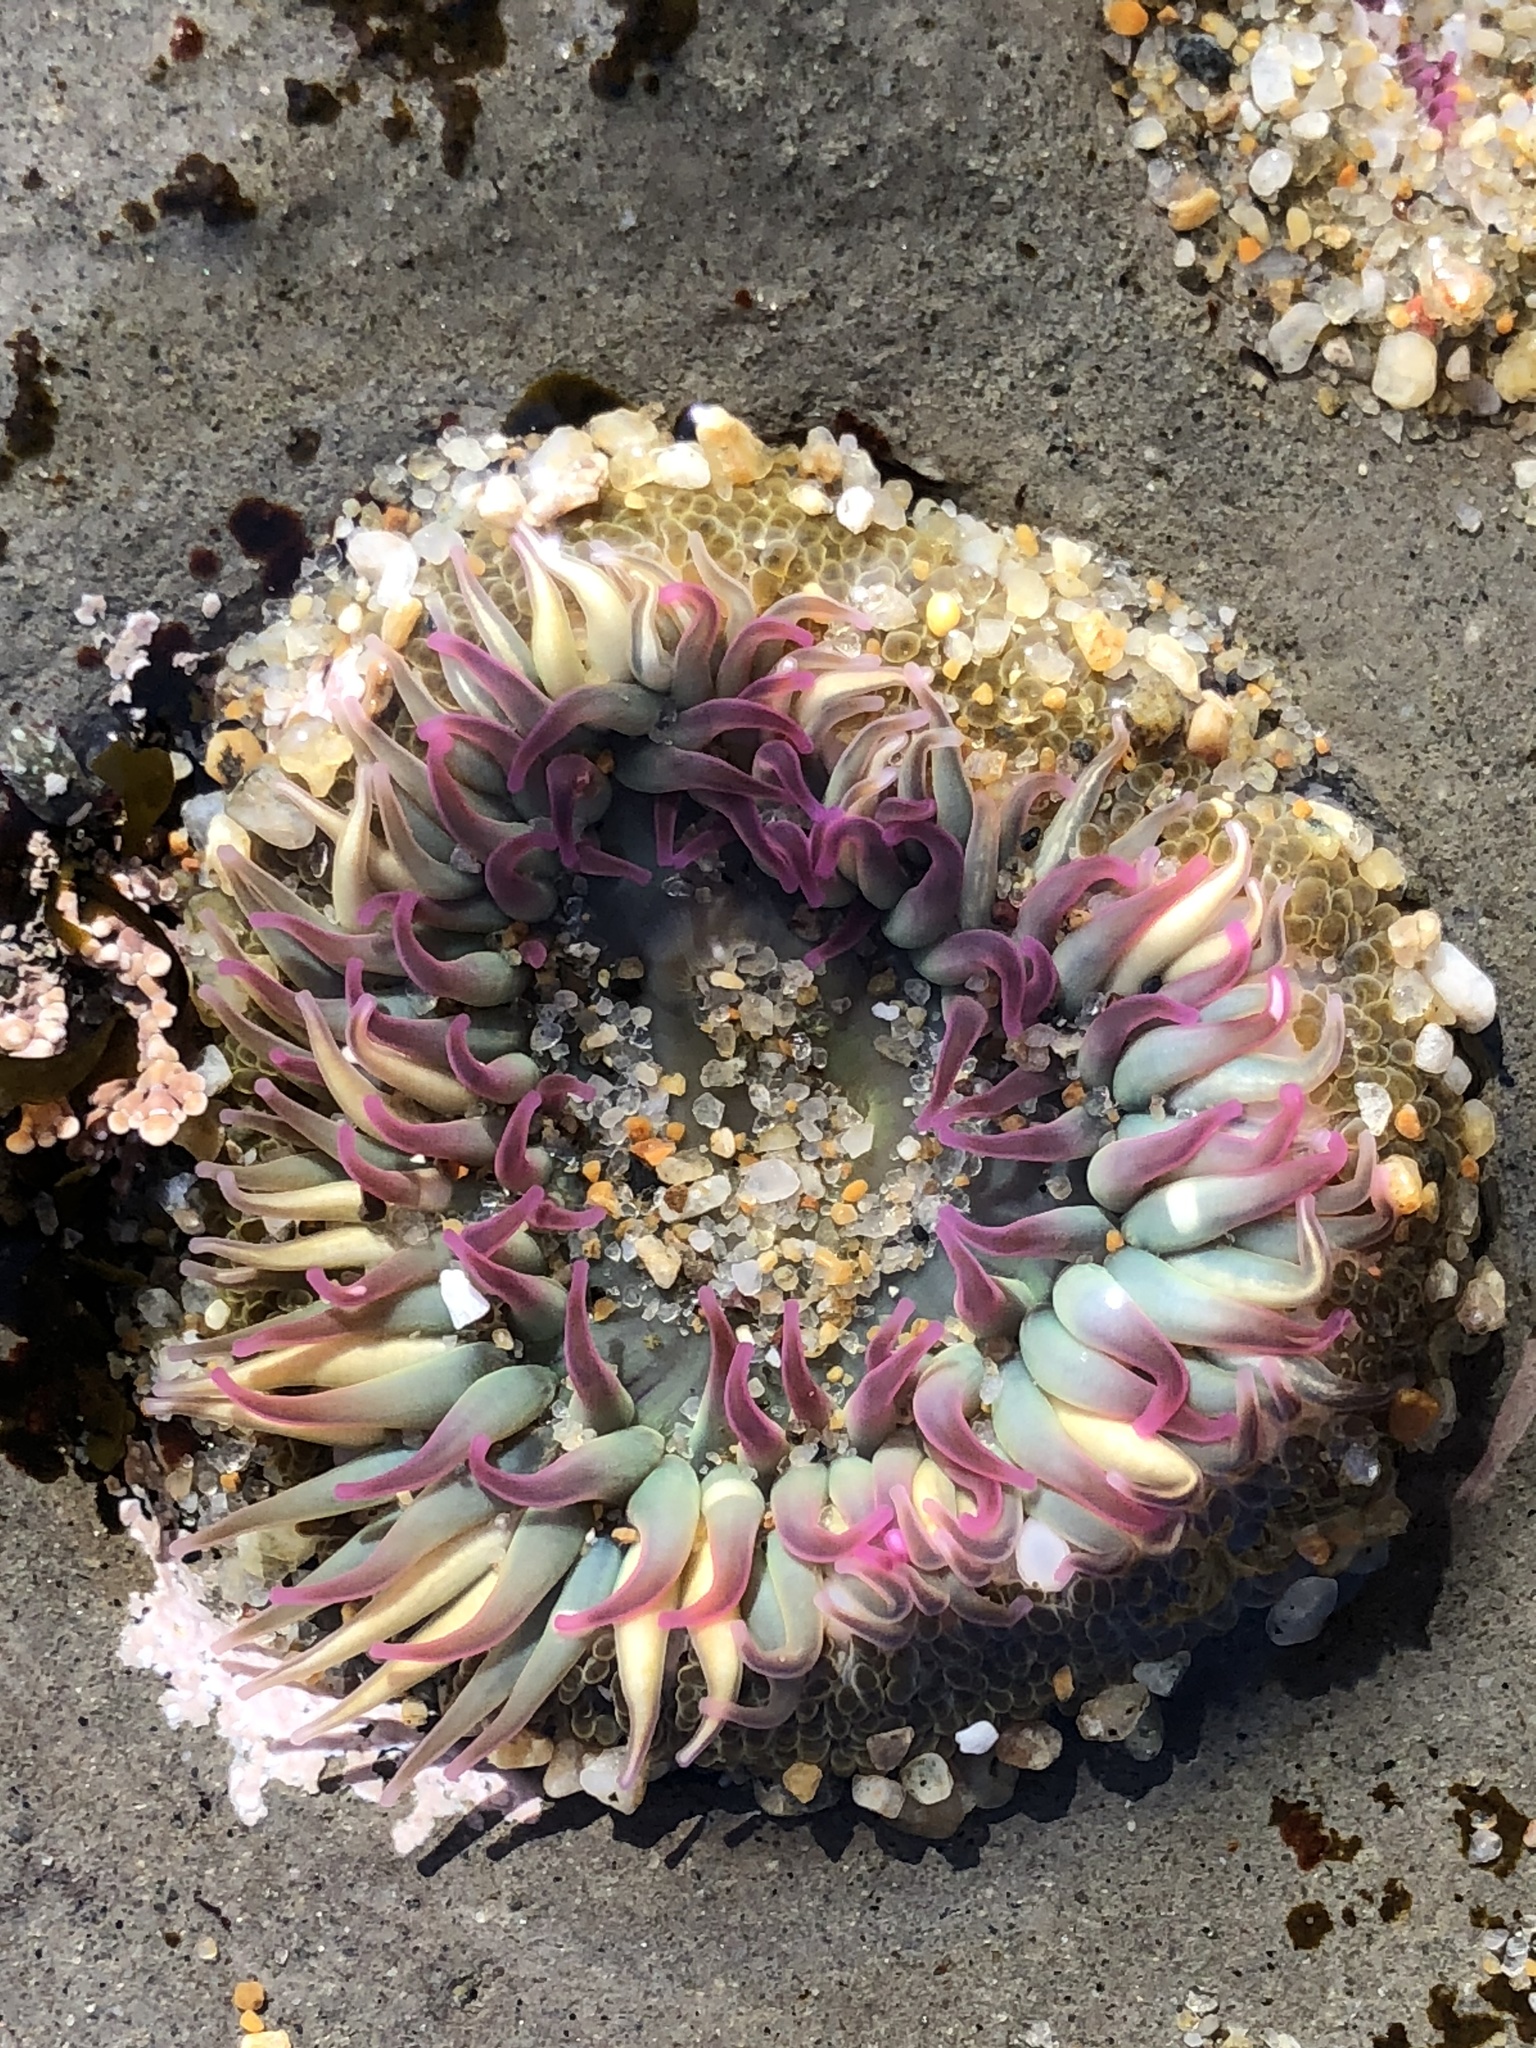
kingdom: Animalia
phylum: Cnidaria
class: Anthozoa
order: Actiniaria
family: Actiniidae
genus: Anthopleura
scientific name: Anthopleura elegantissima
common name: Clonal anemone
